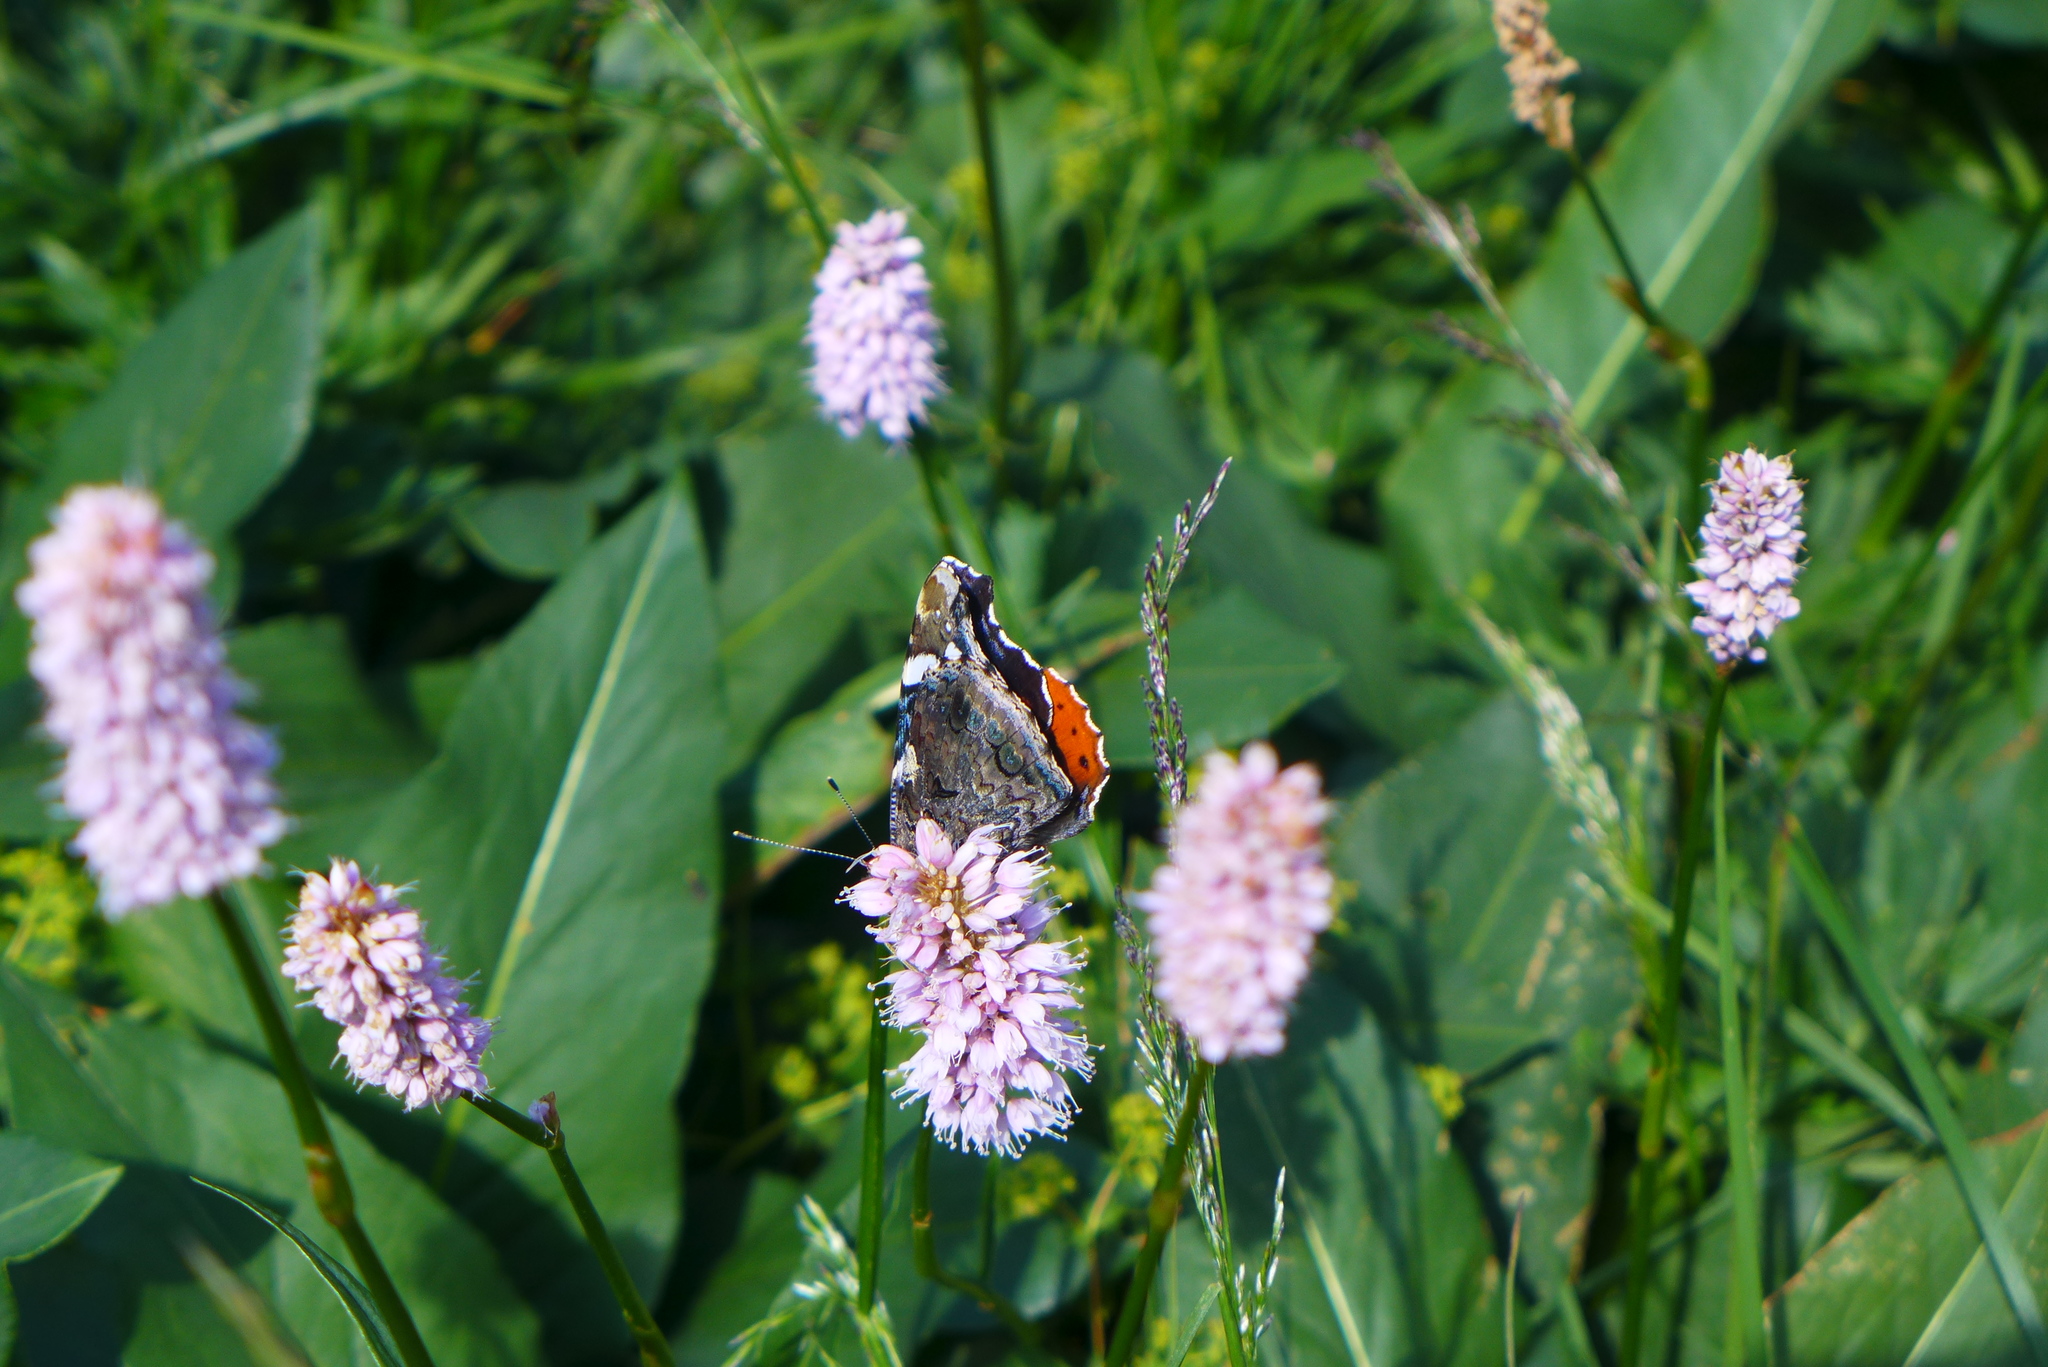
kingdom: Animalia
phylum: Arthropoda
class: Insecta
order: Lepidoptera
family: Nymphalidae
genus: Vanessa
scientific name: Vanessa atalanta
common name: Red admiral
